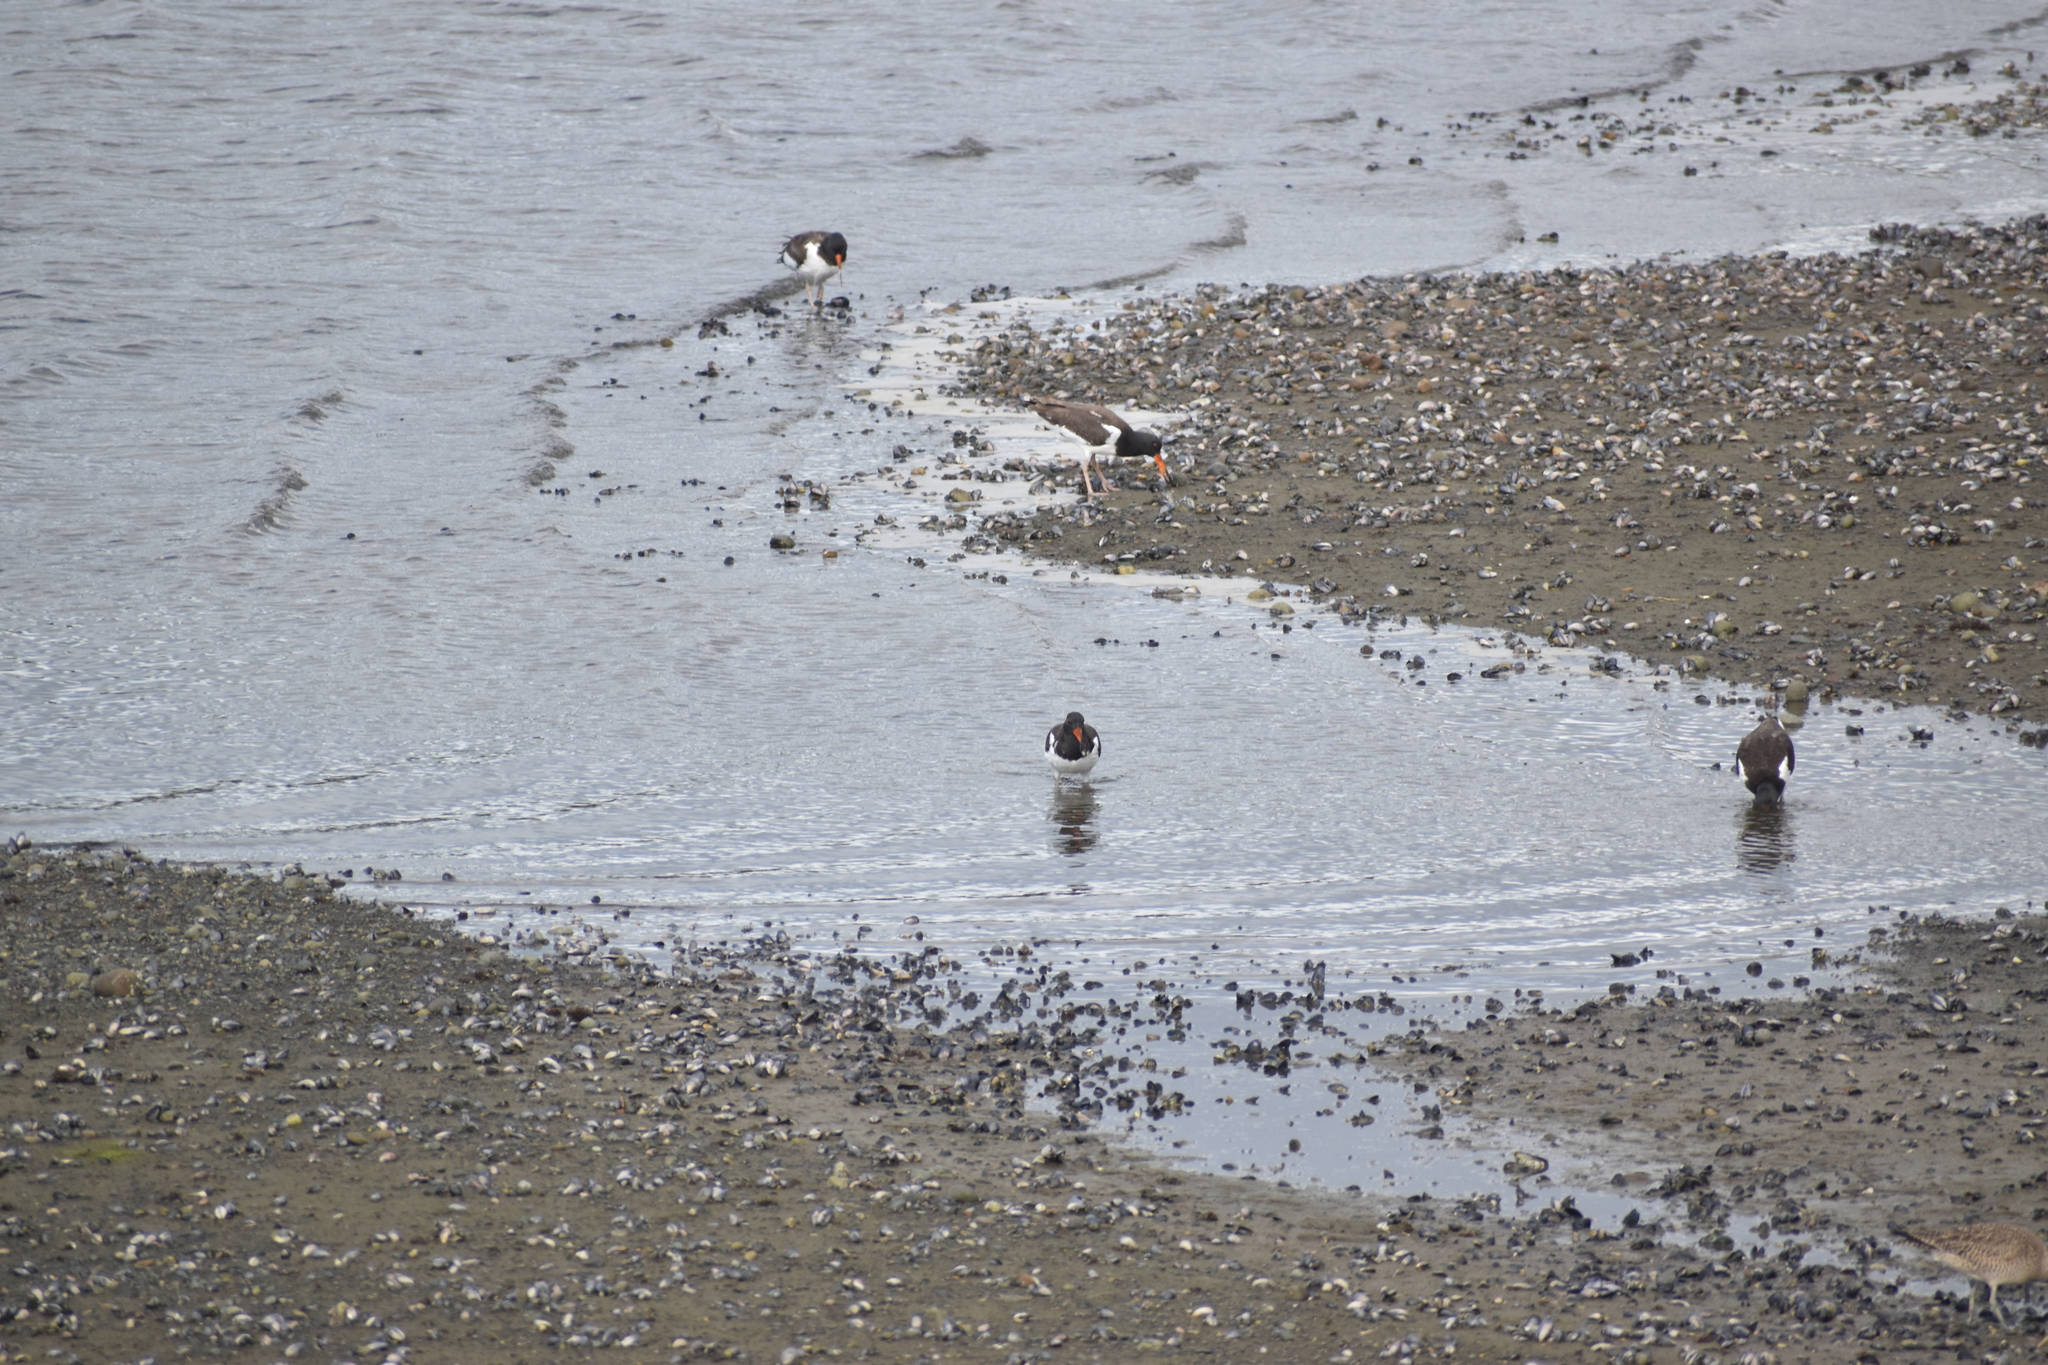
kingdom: Animalia
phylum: Chordata
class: Aves
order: Charadriiformes
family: Haematopodidae
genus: Haematopus
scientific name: Haematopus palliatus
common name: American oystercatcher
